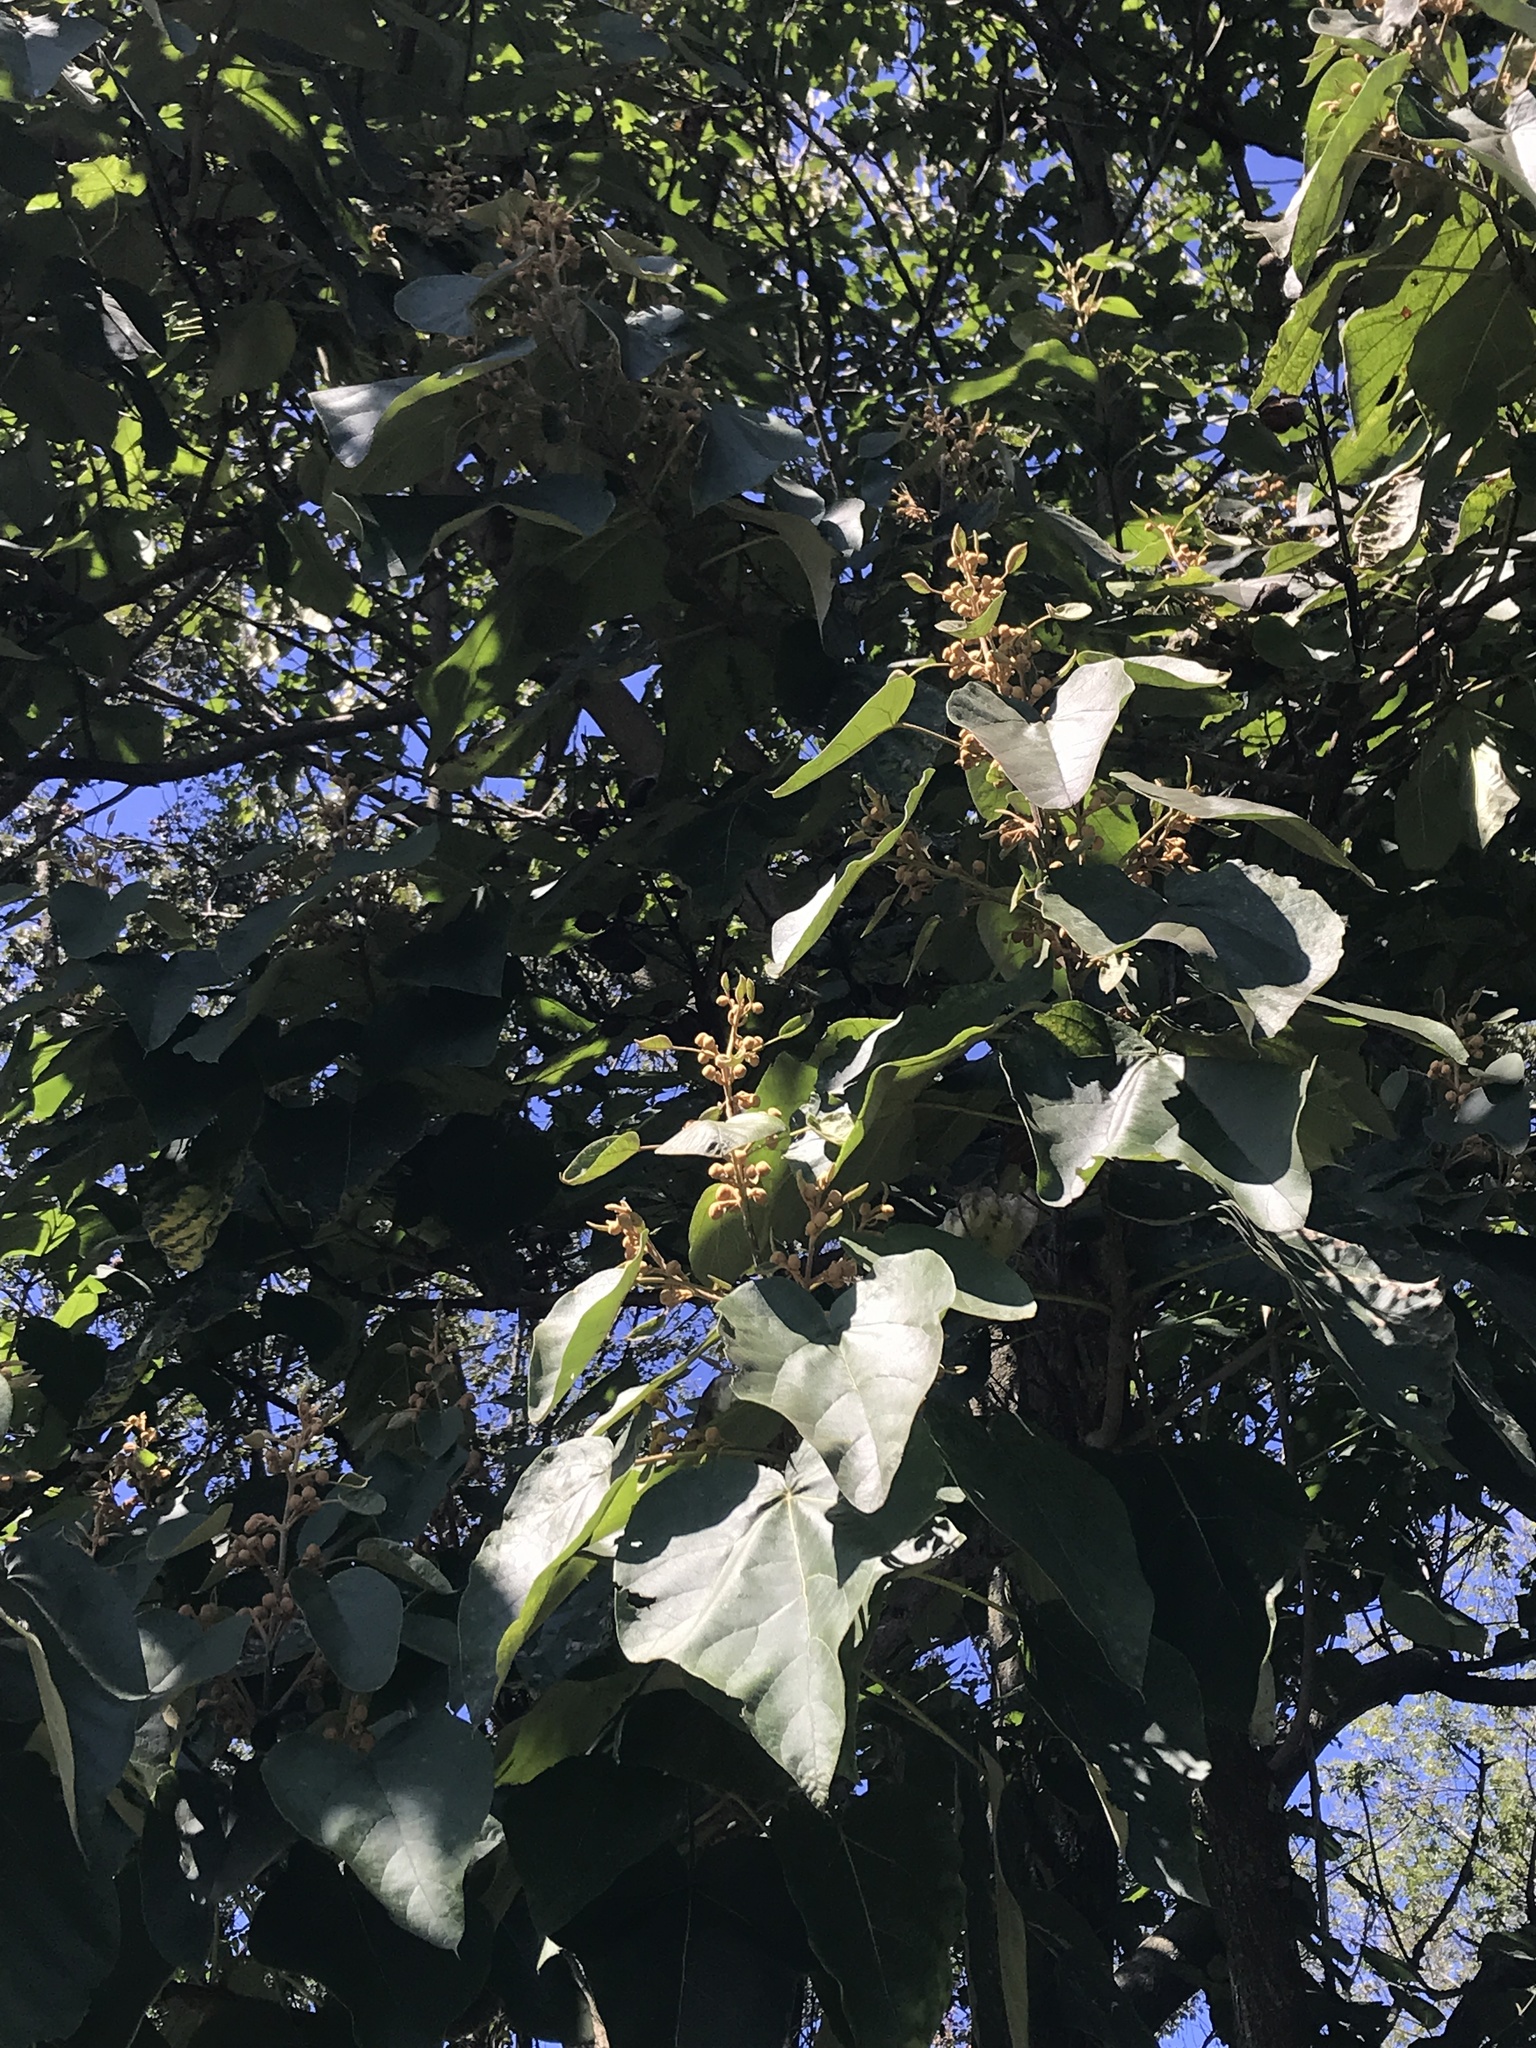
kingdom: Plantae
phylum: Tracheophyta
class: Magnoliopsida
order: Lamiales
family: Paulowniaceae
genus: Paulownia
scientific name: Paulownia tomentosa
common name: Foxglove-tree
